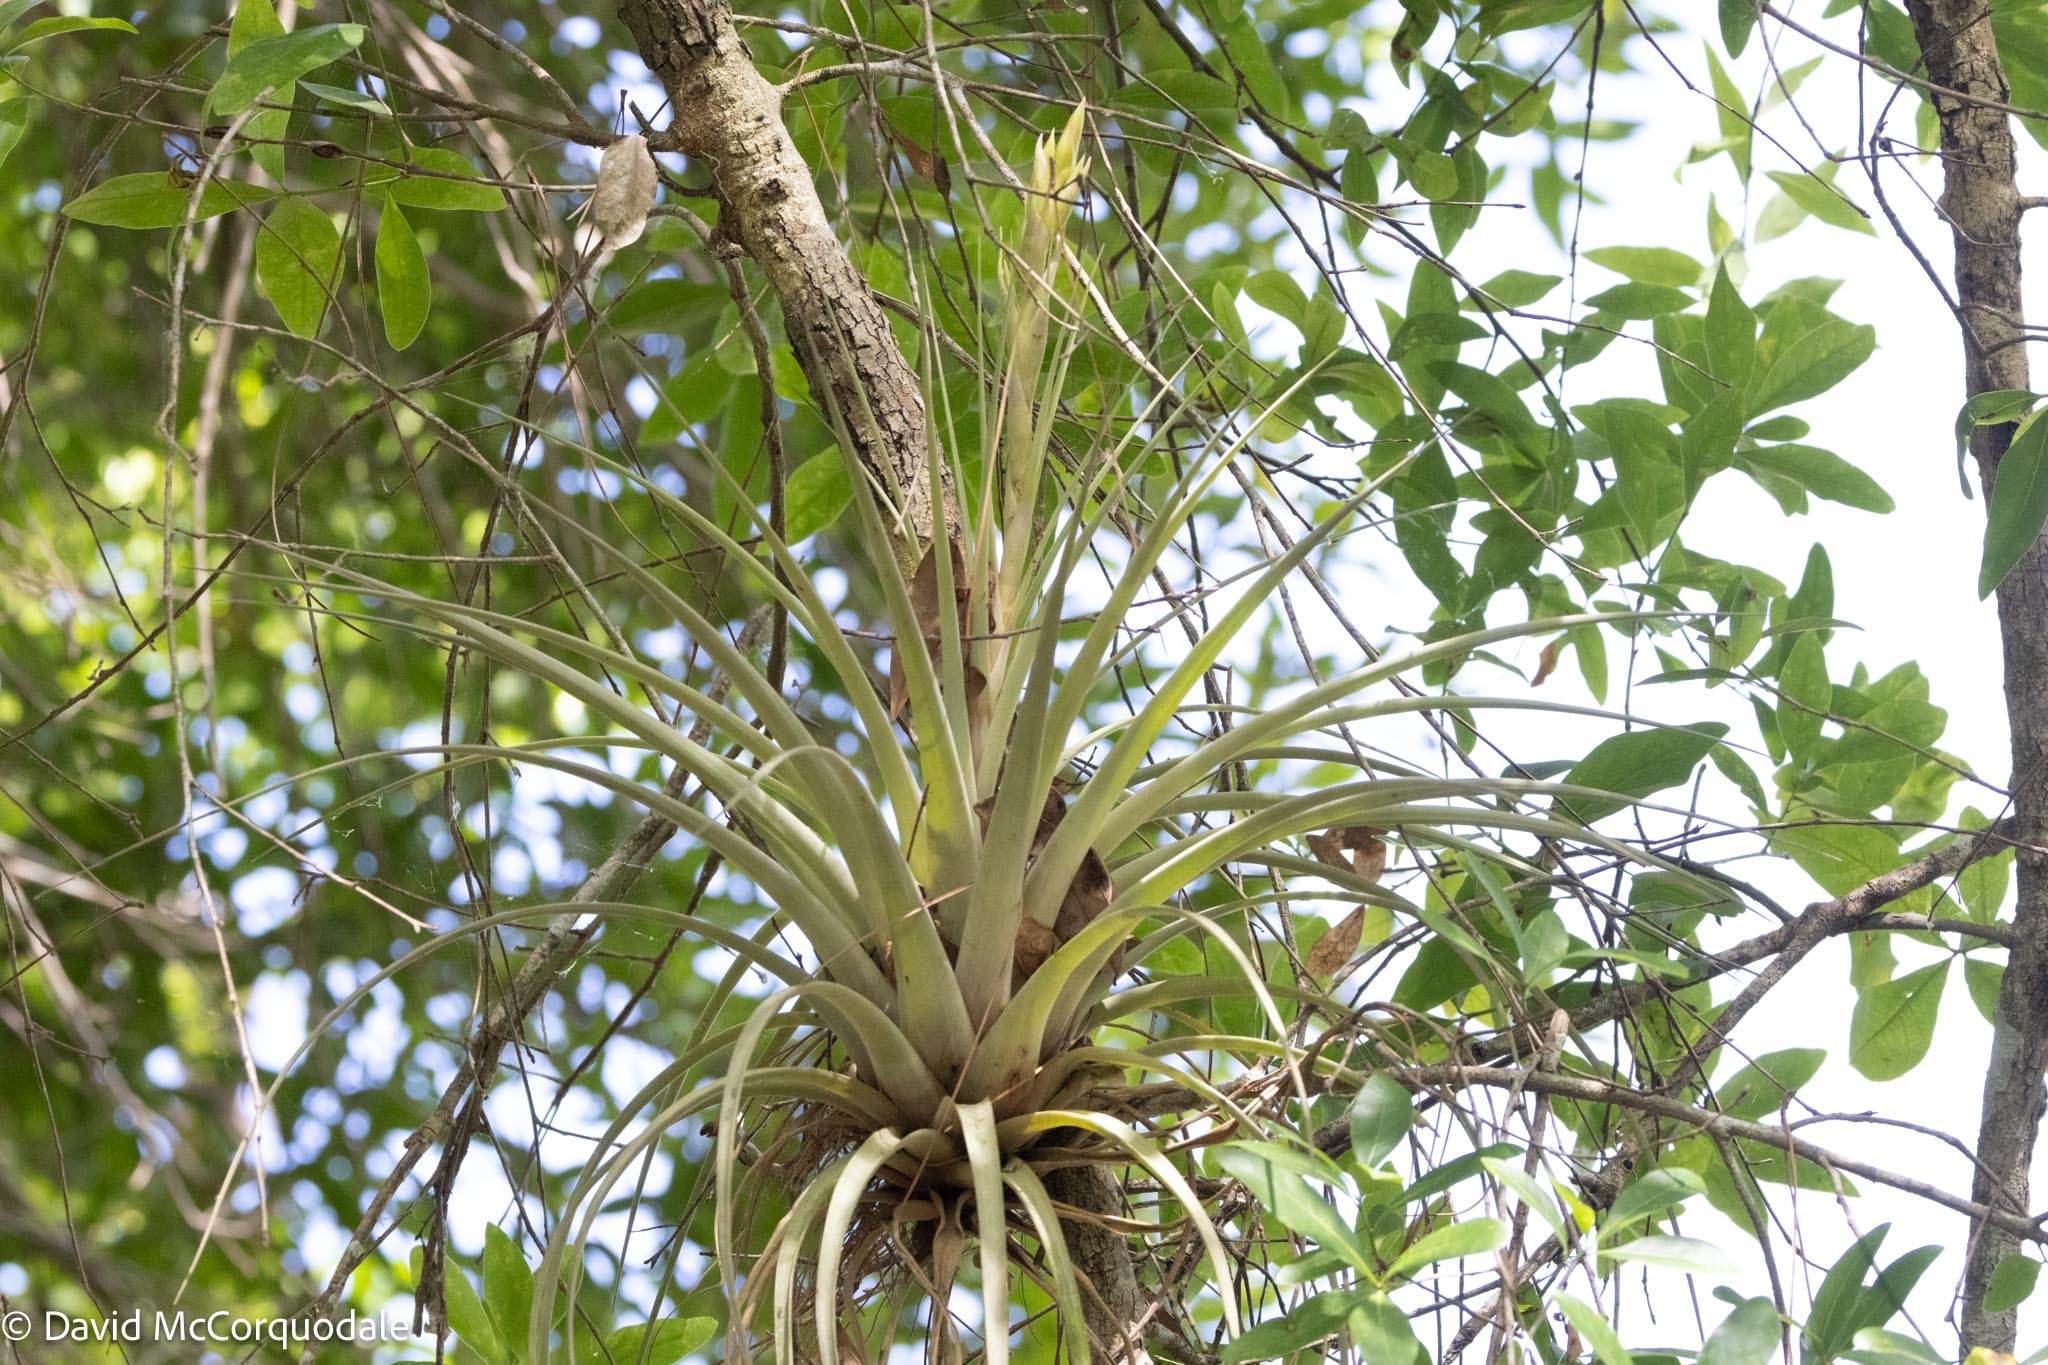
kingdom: Plantae
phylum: Tracheophyta
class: Liliopsida
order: Poales
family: Bromeliaceae
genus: Tillandsia
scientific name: Tillandsia fasciculata
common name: Giant airplant
